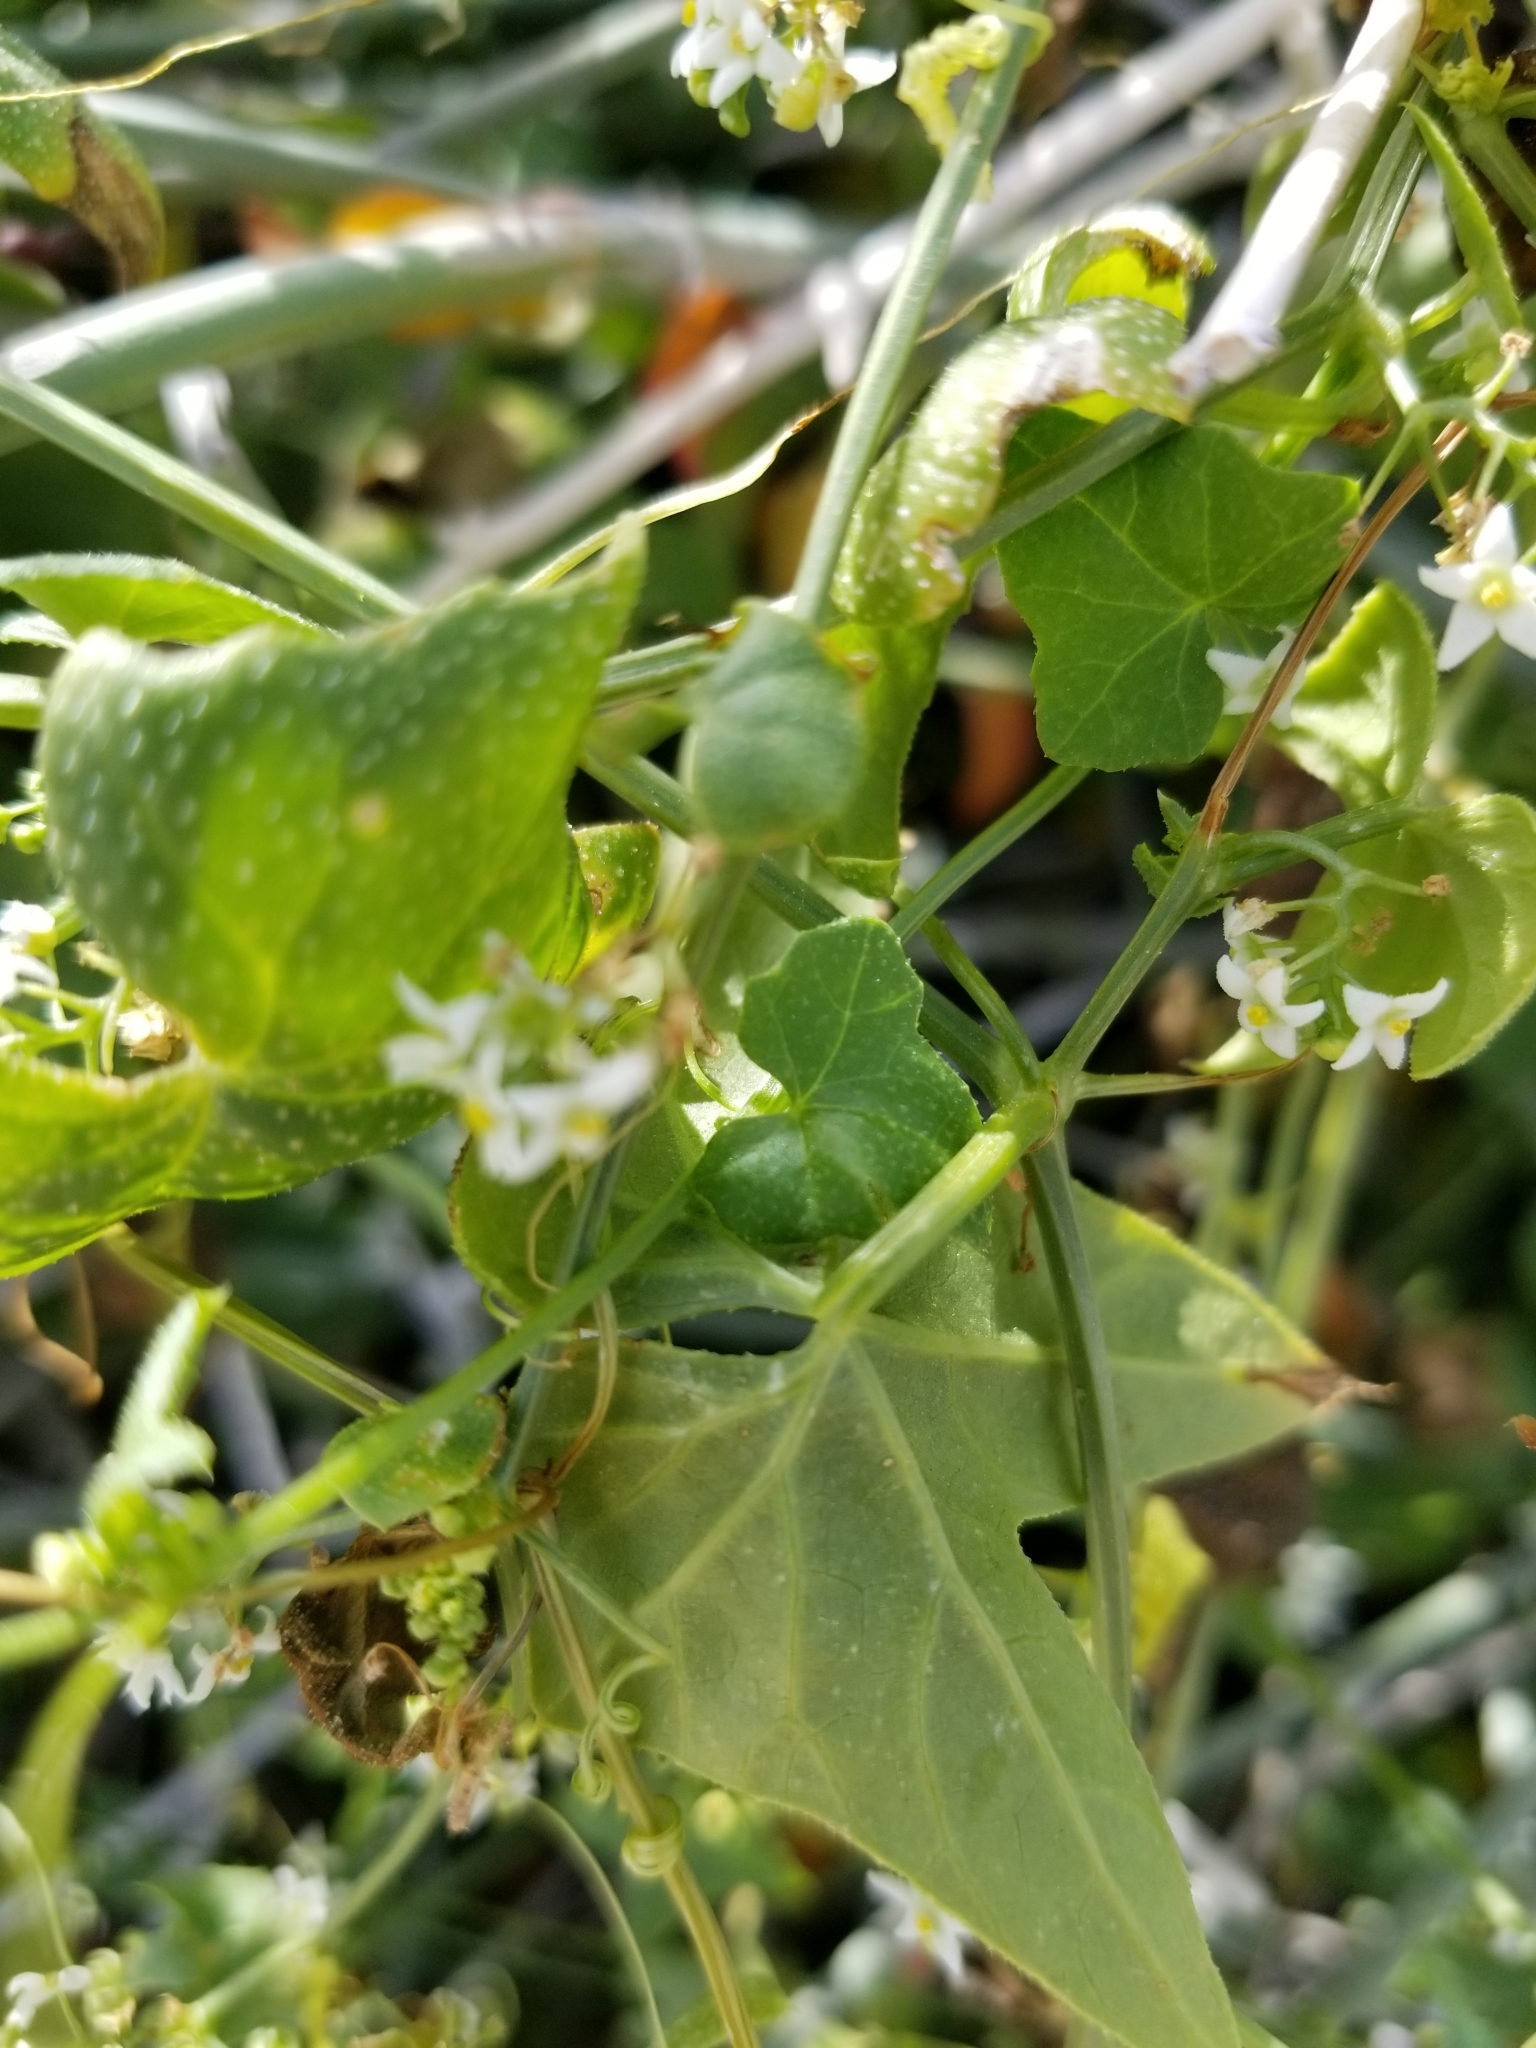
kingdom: Plantae
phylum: Tracheophyta
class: Magnoliopsida
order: Cucurbitales
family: Cucurbitaceae
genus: Echinopepon
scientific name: Echinopepon bigelovii
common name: Desert starvine
